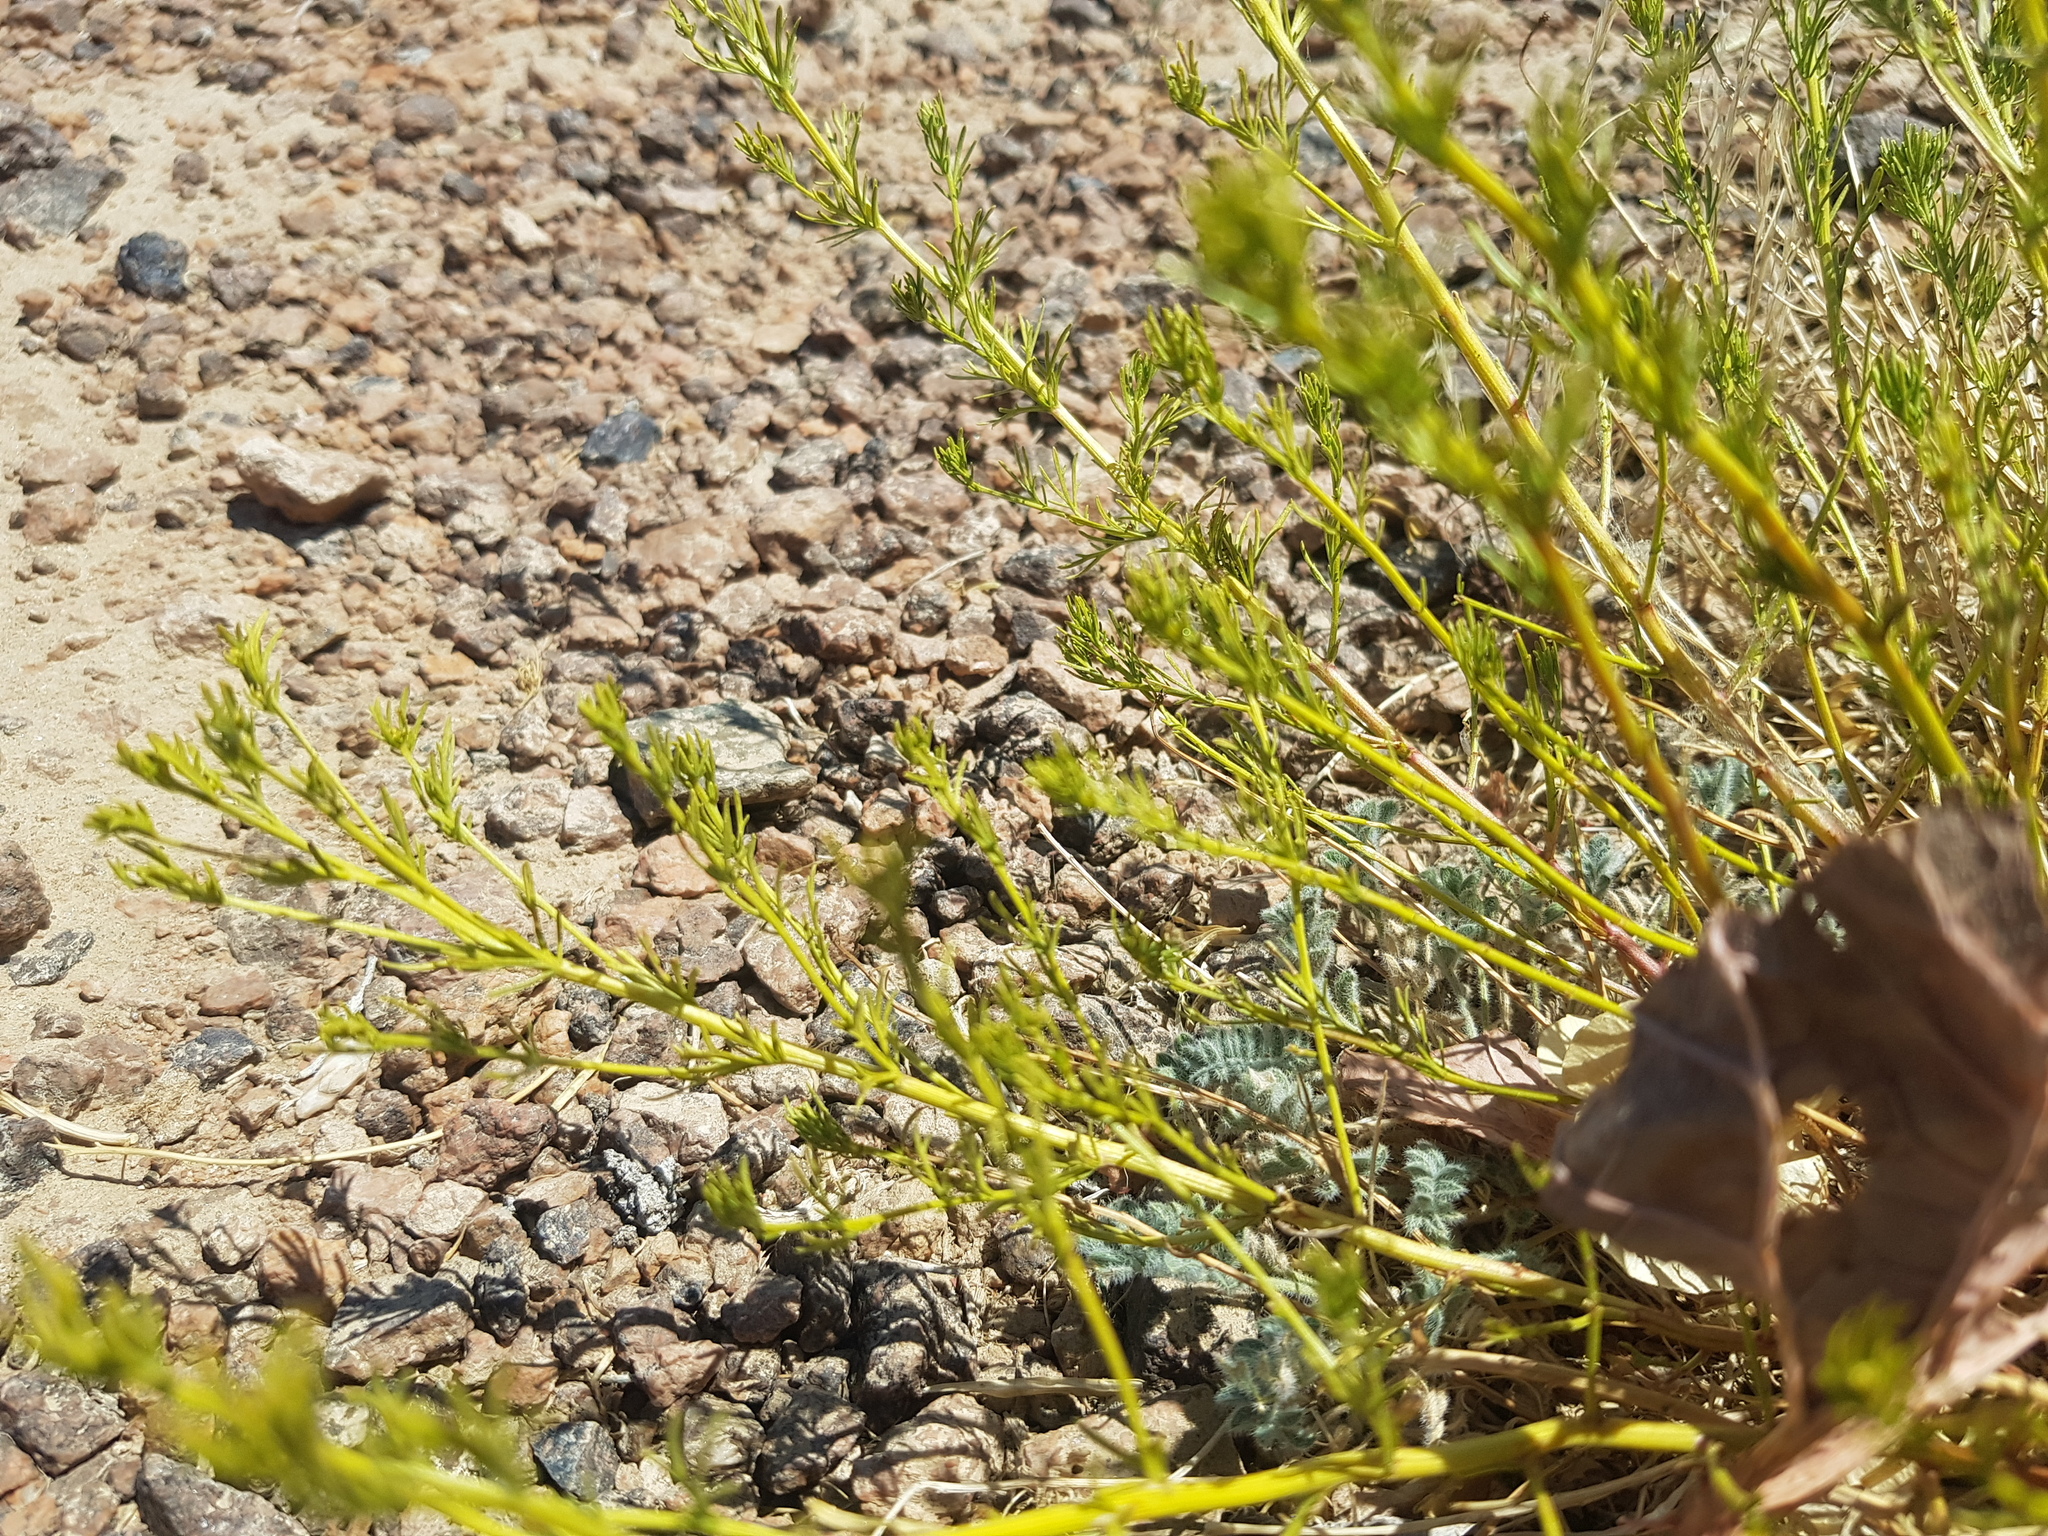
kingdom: Plantae
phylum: Tracheophyta
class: Magnoliopsida
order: Asterales
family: Asteraceae
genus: Ajania
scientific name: Ajania fruticulosa
